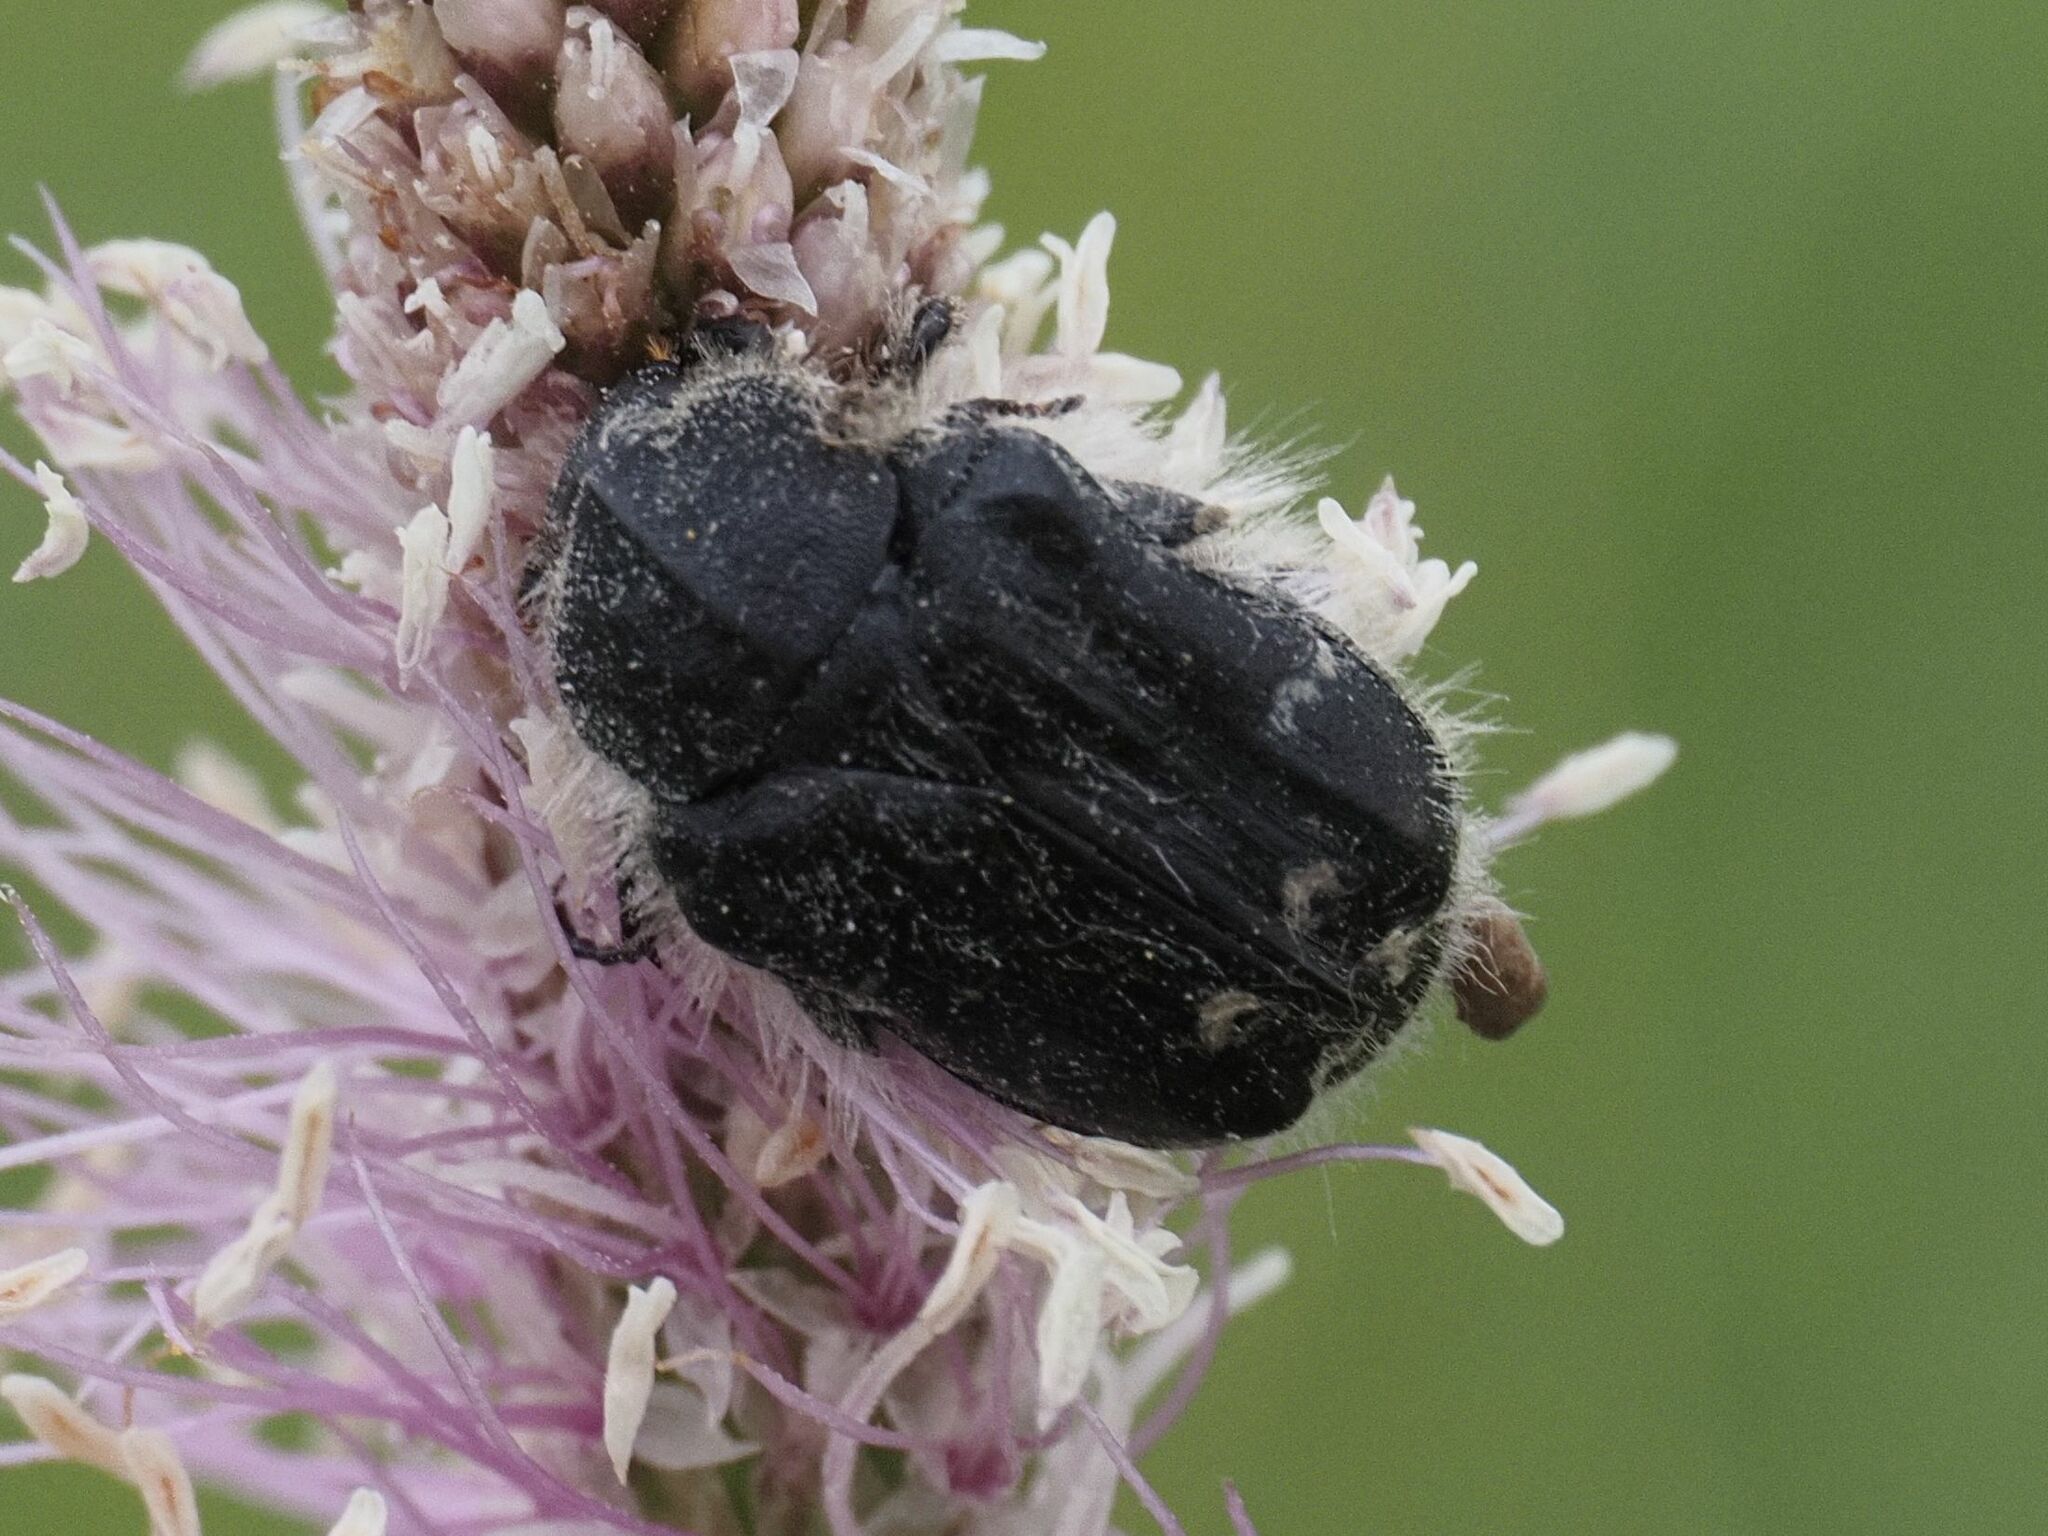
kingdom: Animalia
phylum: Arthropoda
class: Insecta
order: Coleoptera
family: Scarabaeidae
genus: Tropinota
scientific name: Tropinota hirta
